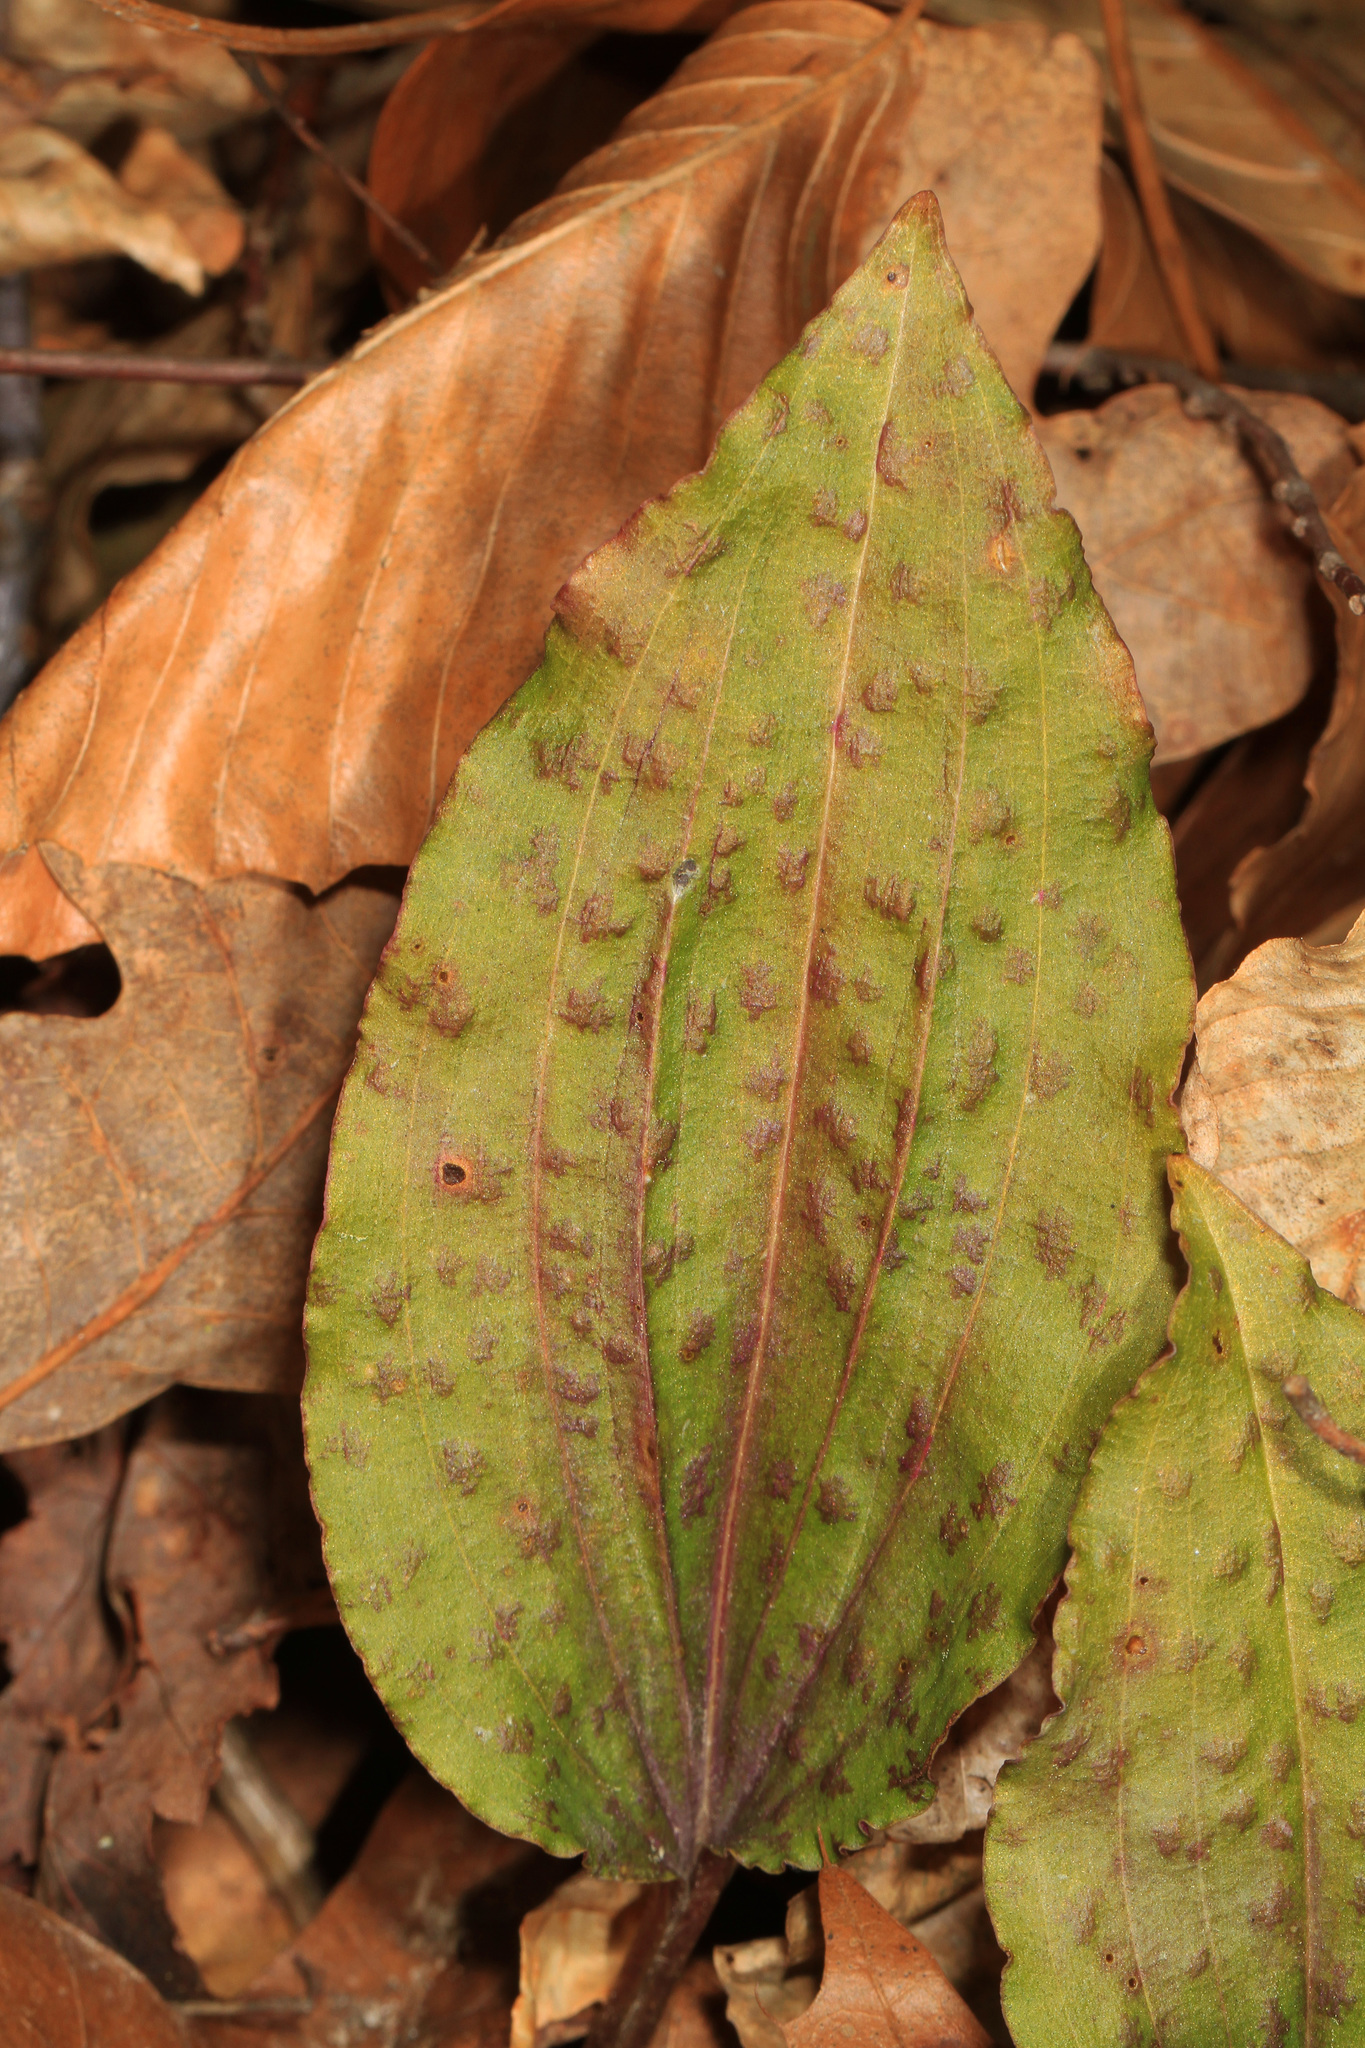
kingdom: Plantae
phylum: Tracheophyta
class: Liliopsida
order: Asparagales
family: Orchidaceae
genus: Tipularia
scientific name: Tipularia discolor
